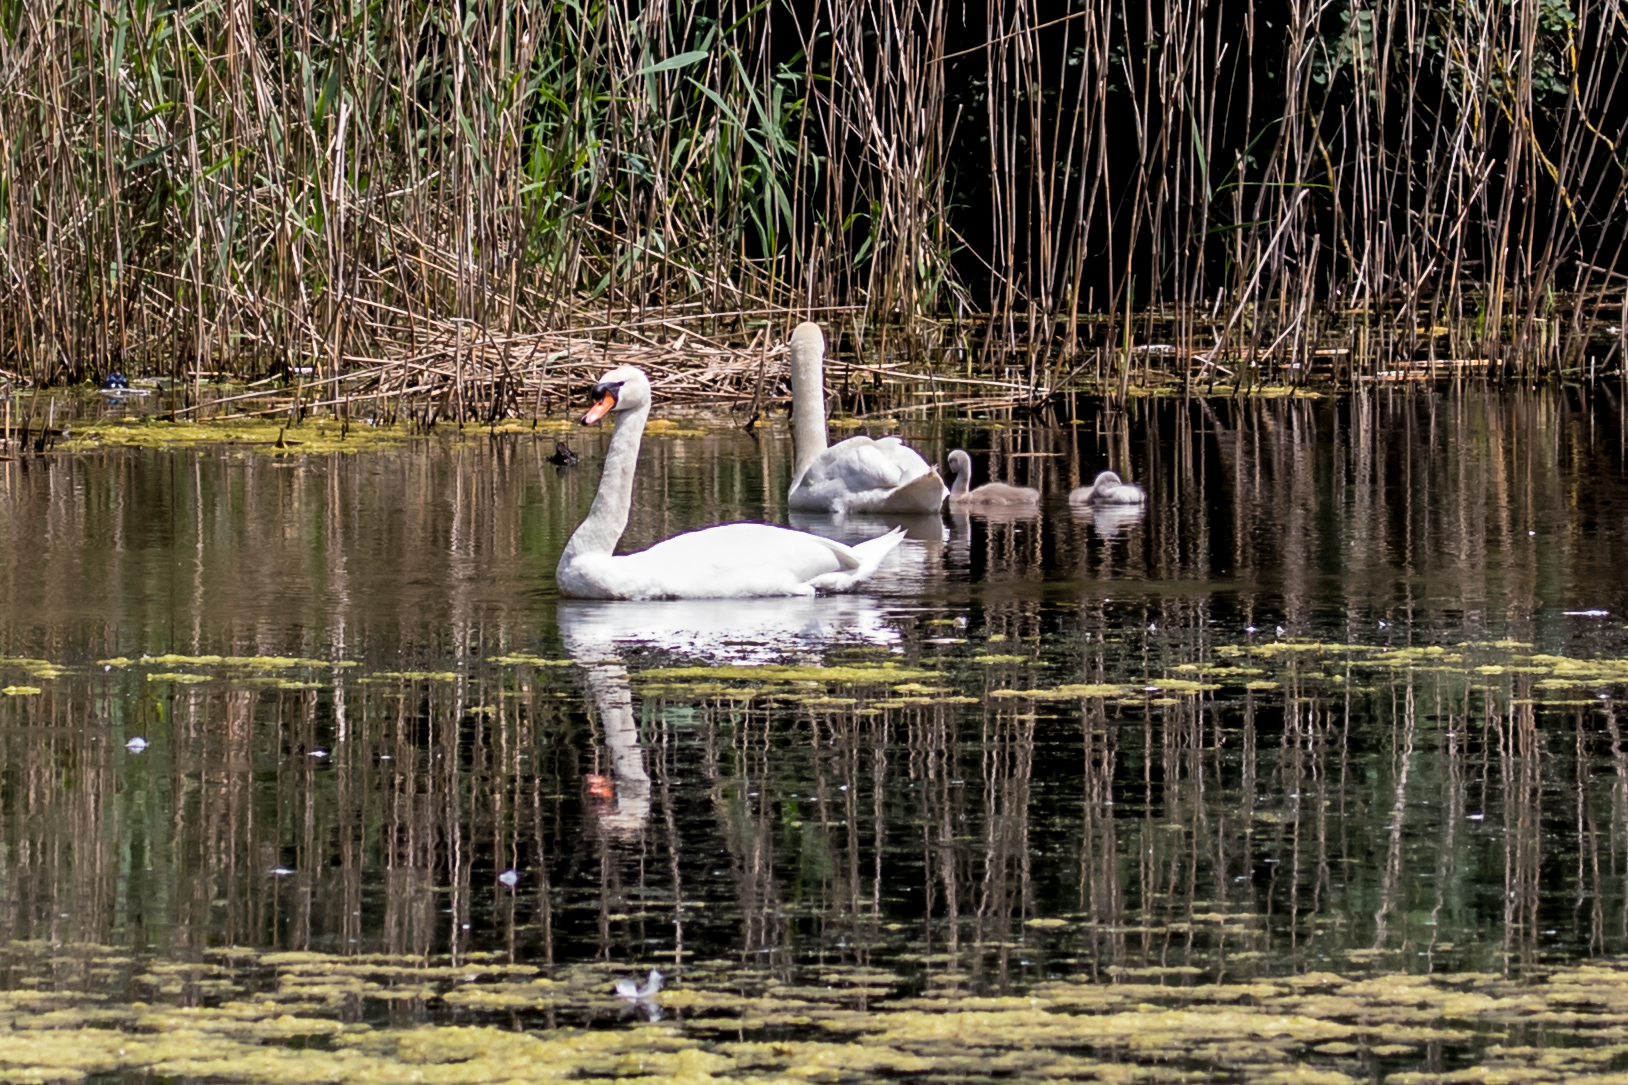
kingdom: Animalia
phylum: Chordata
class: Aves
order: Anseriformes
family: Anatidae
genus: Cygnus
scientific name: Cygnus olor
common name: Mute swan
